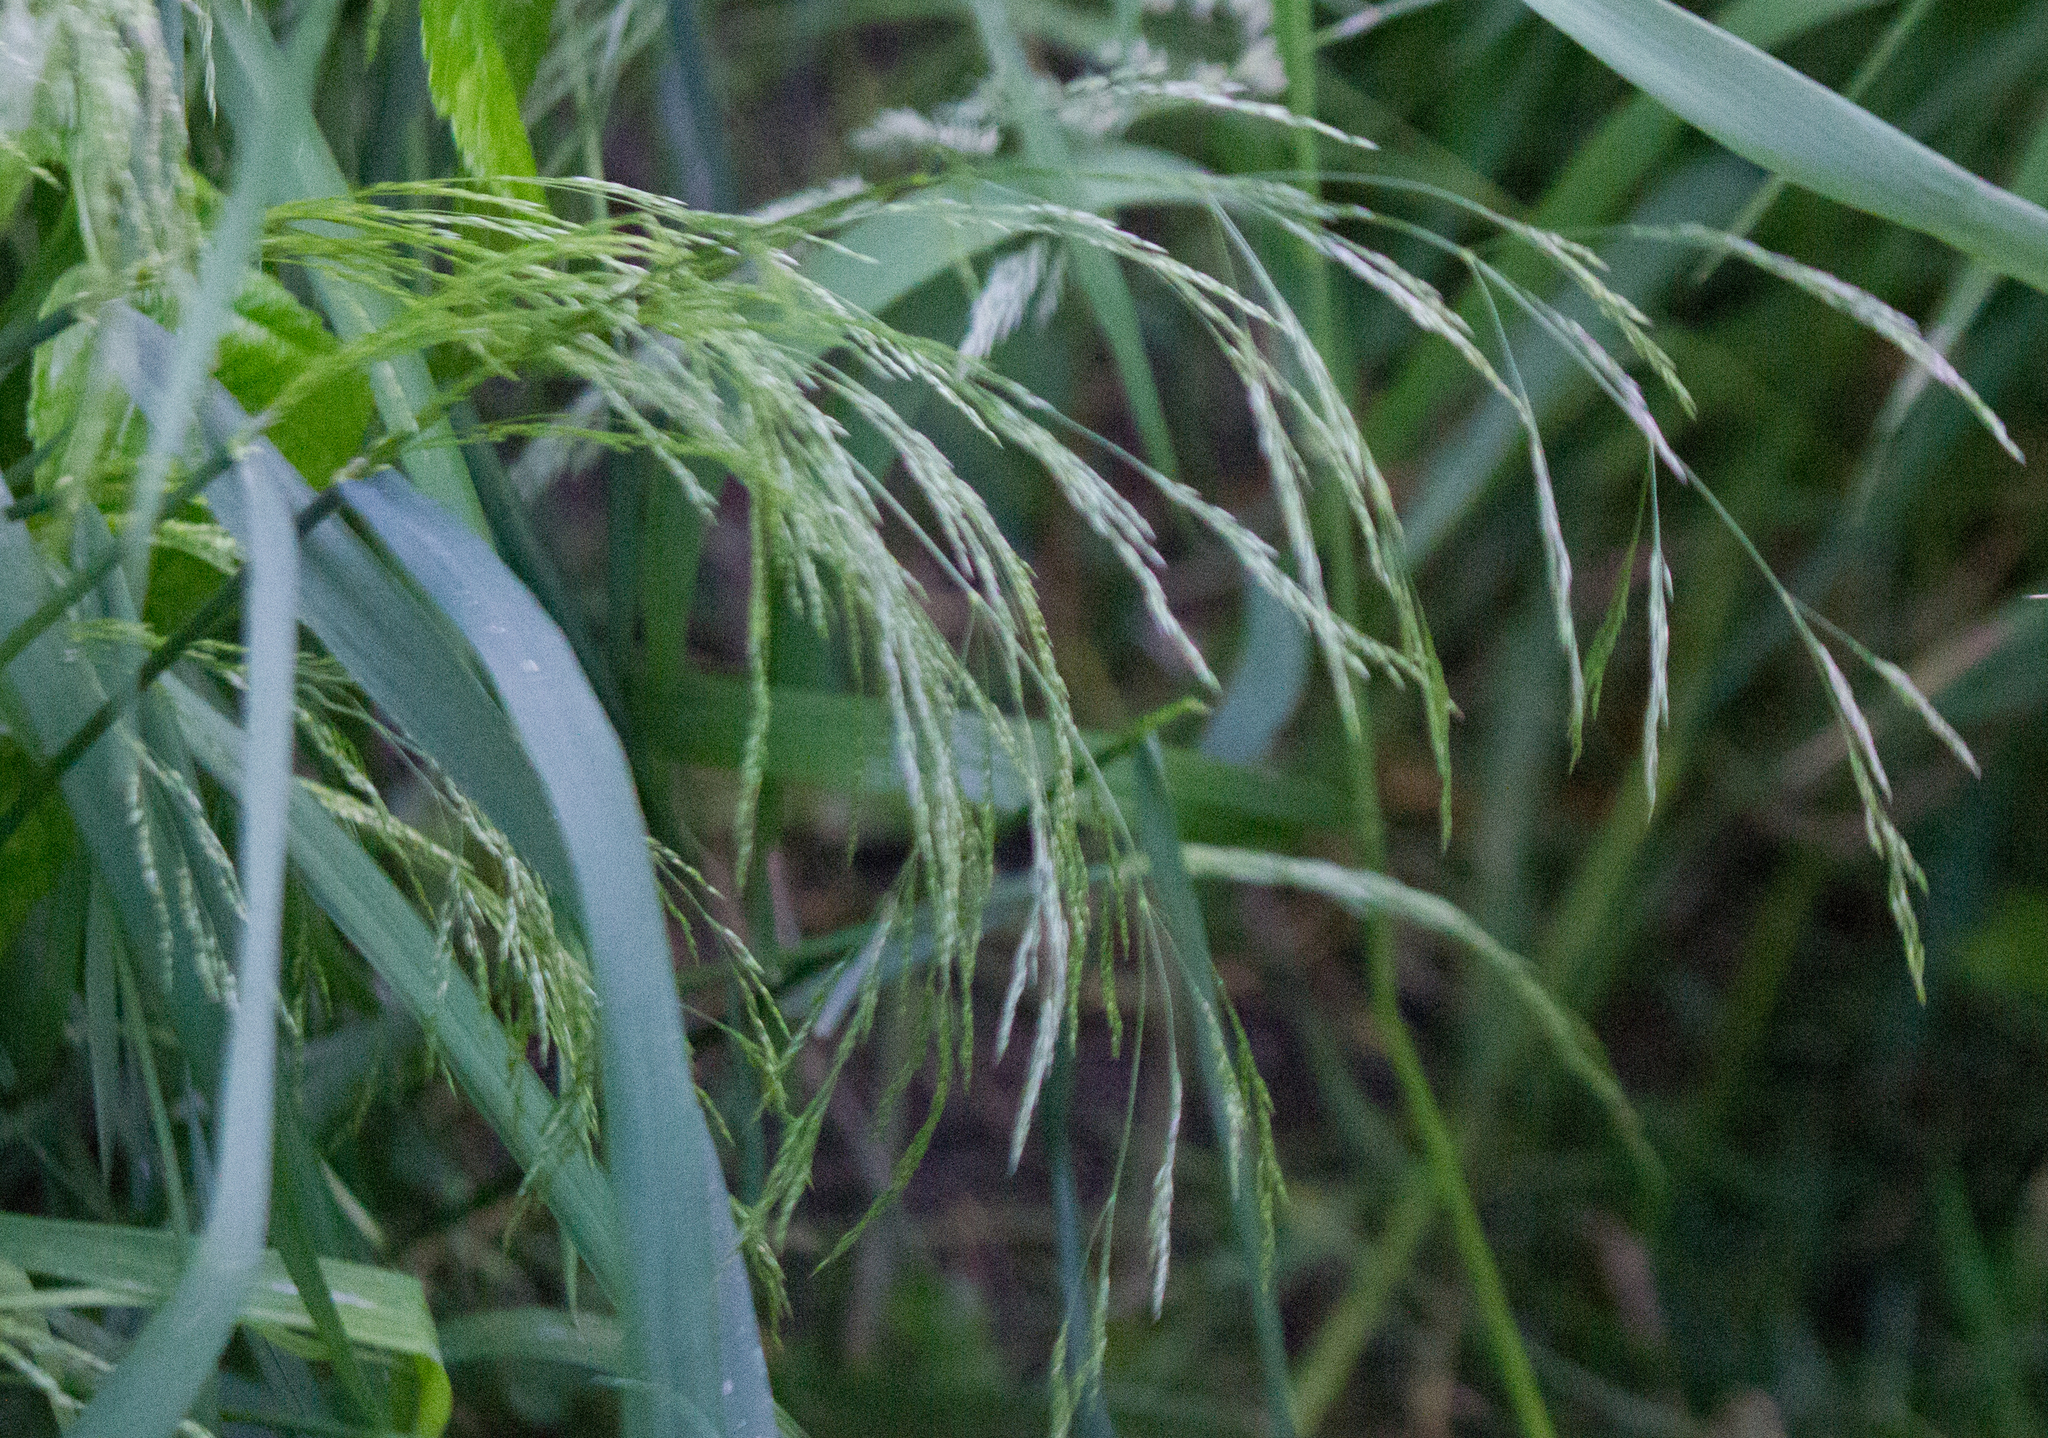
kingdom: Plantae
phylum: Tracheophyta
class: Liliopsida
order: Poales
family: Poaceae
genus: Deschampsia
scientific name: Deschampsia cespitosa
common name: Tufted hair-grass
